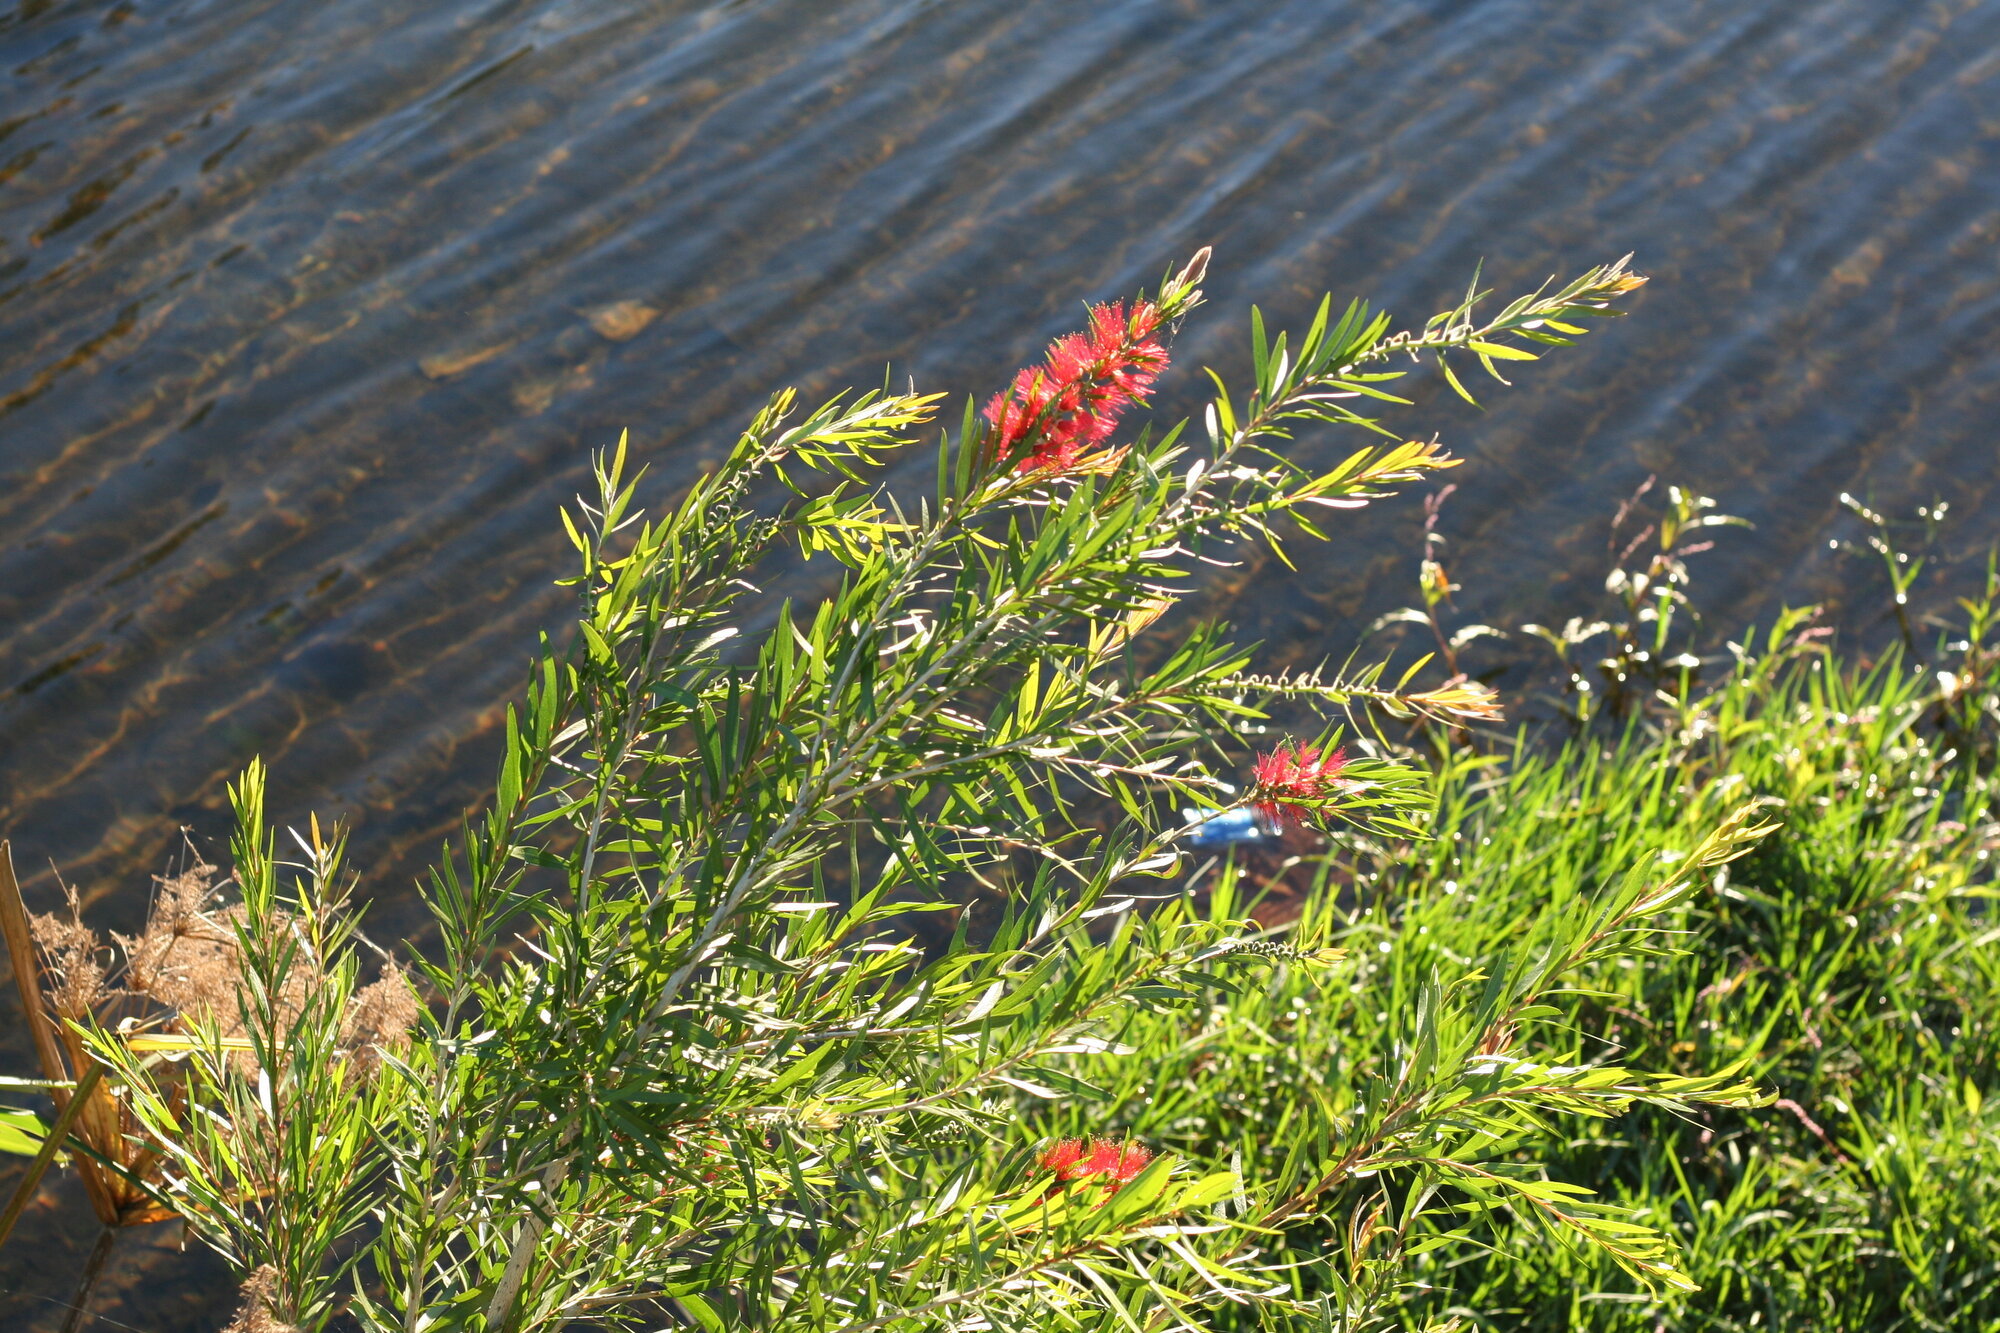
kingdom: Plantae
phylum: Tracheophyta
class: Magnoliopsida
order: Myrtales
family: Myrtaceae
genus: Callistemon
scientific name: Callistemon viminalis
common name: Drooping bottlebrush
